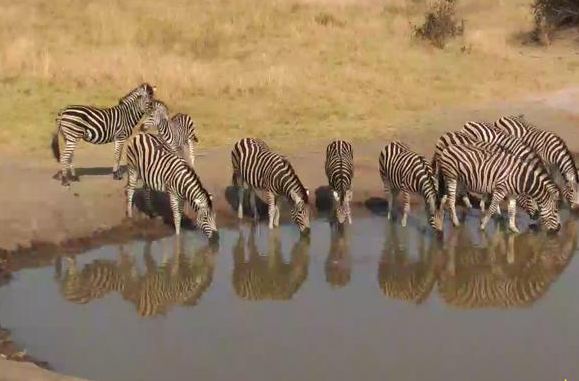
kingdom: Animalia
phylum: Chordata
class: Mammalia
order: Perissodactyla
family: Equidae
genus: Equus
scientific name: Equus quagga
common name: Plains zebra
